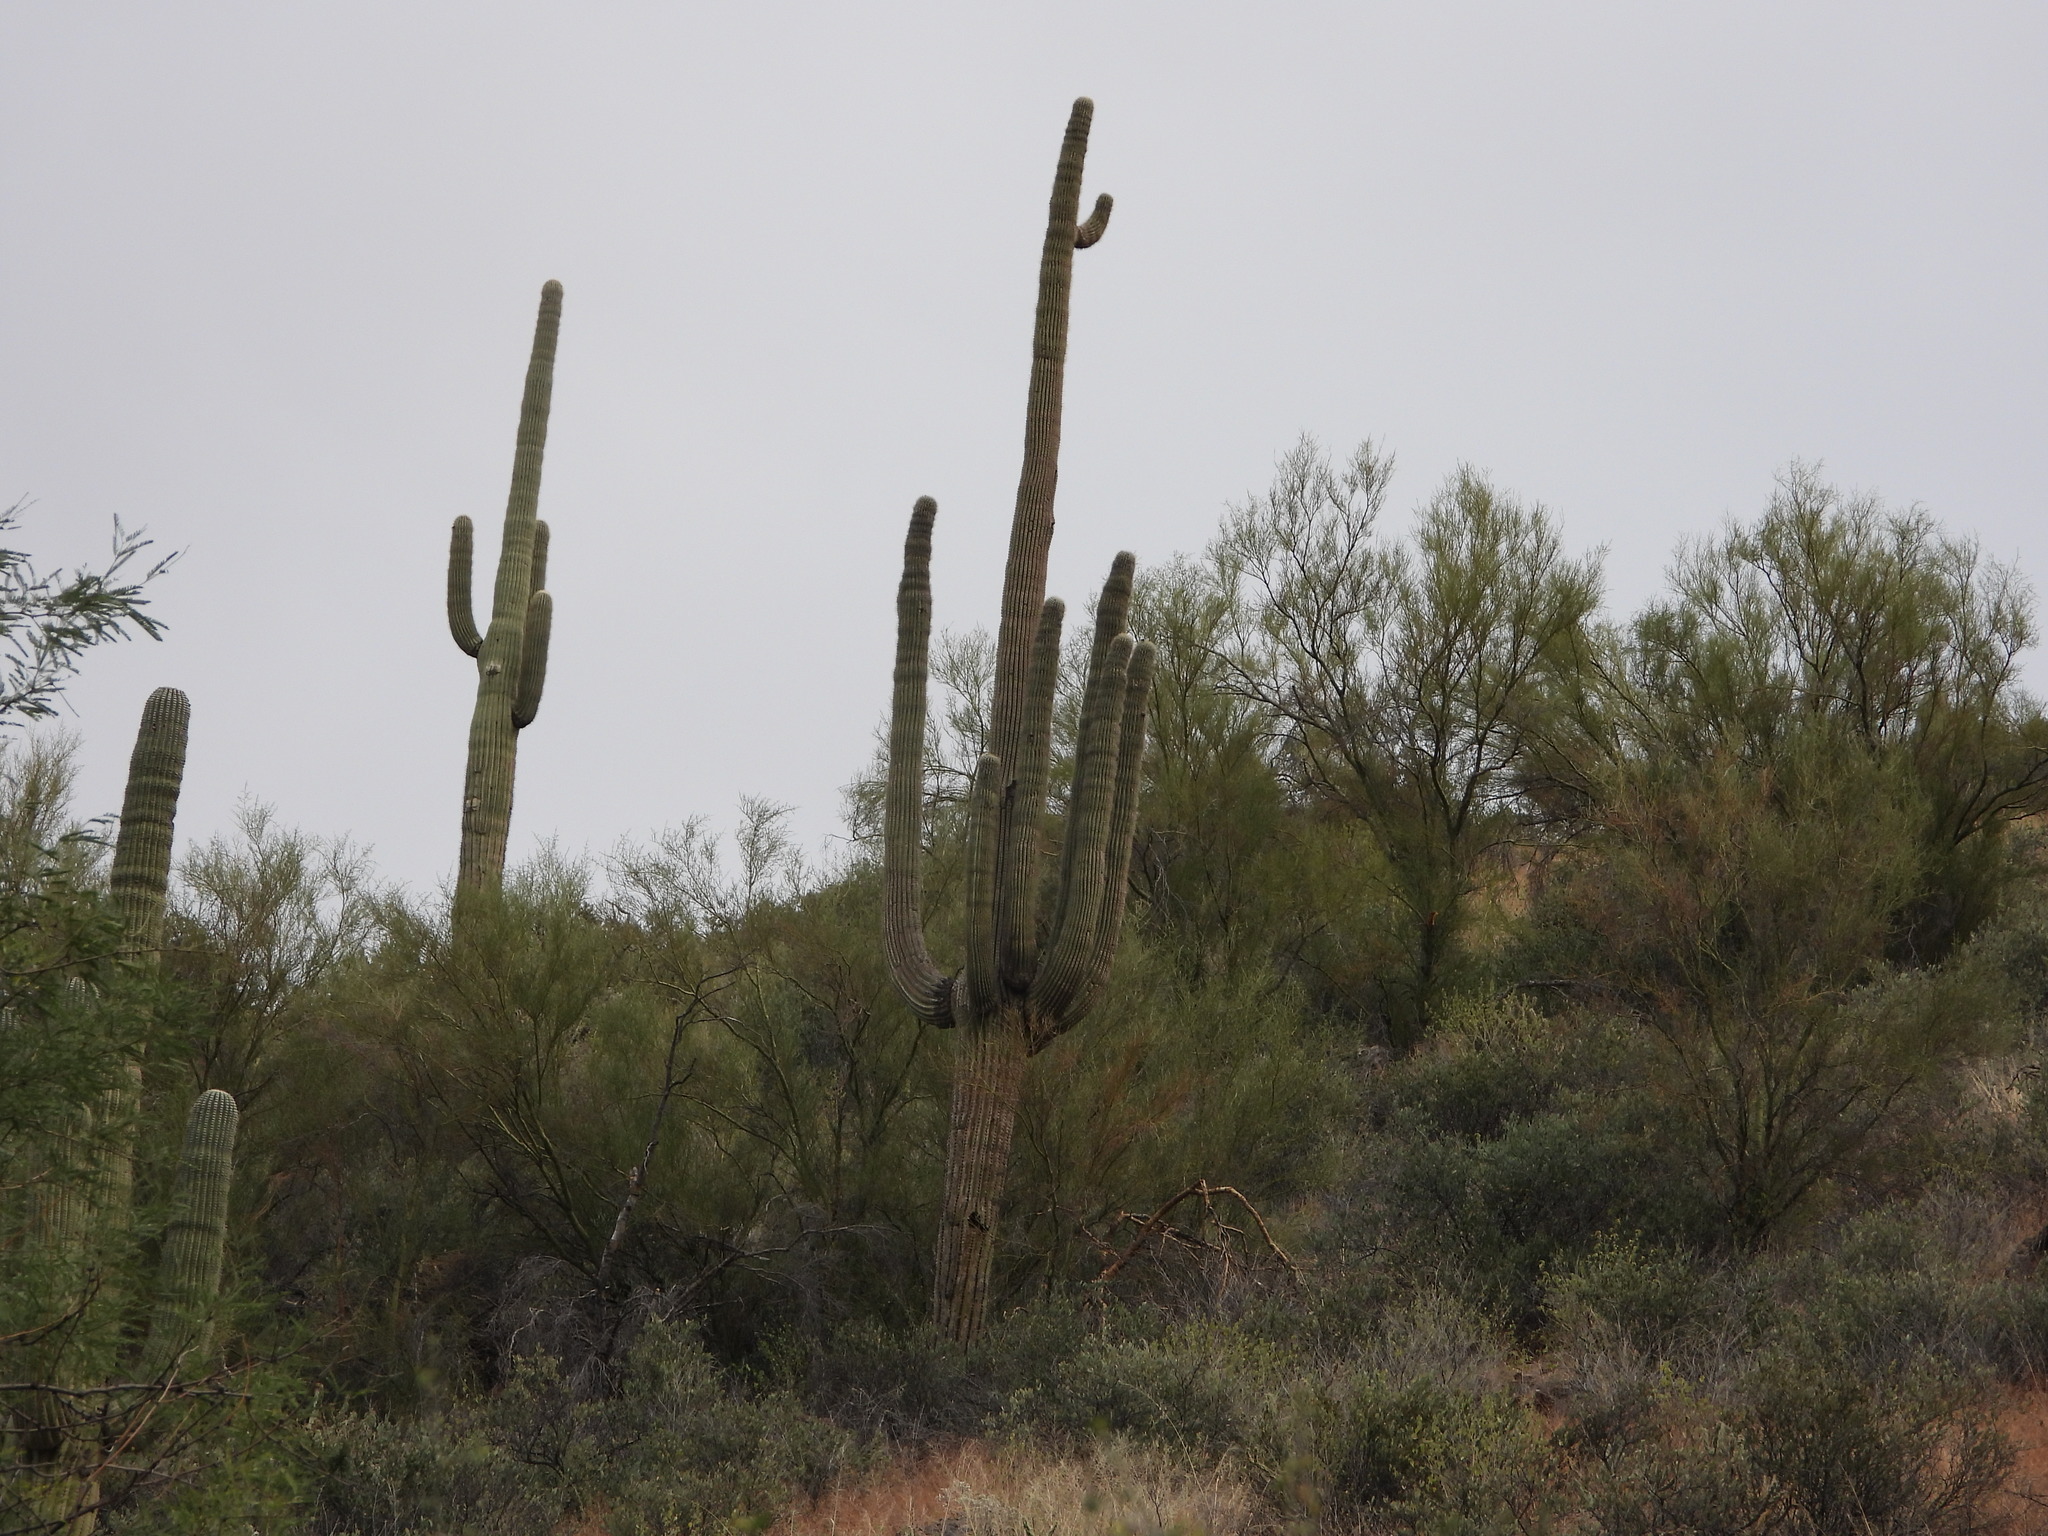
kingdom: Plantae
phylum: Tracheophyta
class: Magnoliopsida
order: Caryophyllales
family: Cactaceae
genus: Carnegiea
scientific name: Carnegiea gigantea
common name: Saguaro
